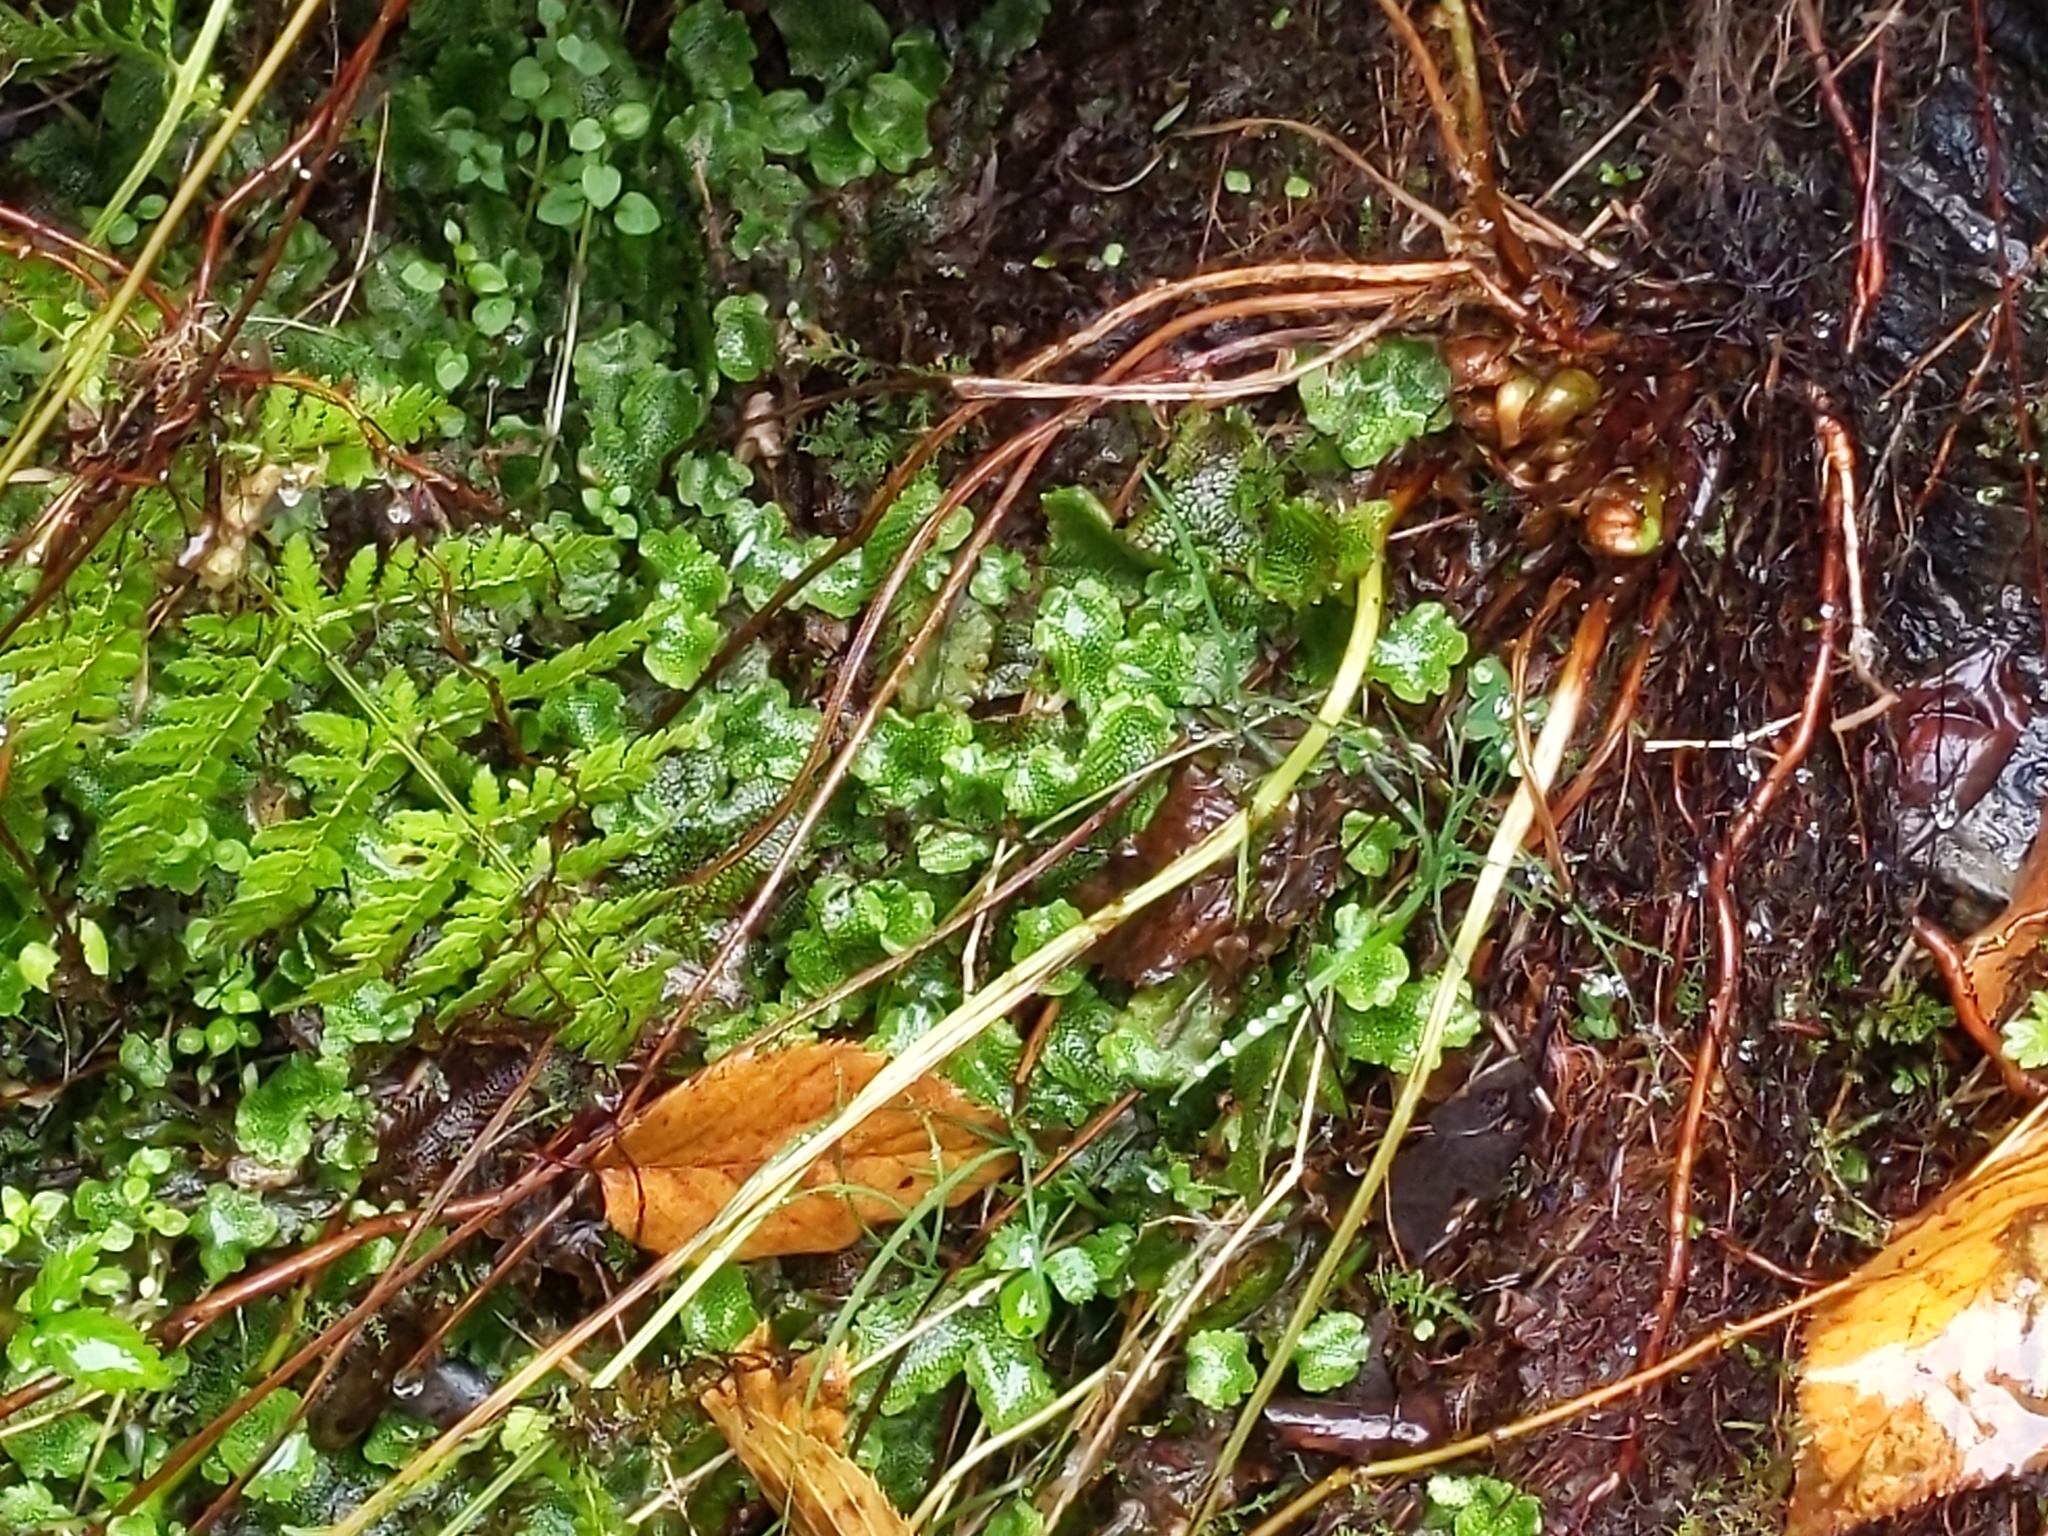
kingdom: Plantae
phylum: Marchantiophyta
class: Marchantiopsida
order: Marchantiales
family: Conocephalaceae
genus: Conocephalum
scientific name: Conocephalum salebrosum
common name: Cat-tongue liverwort
